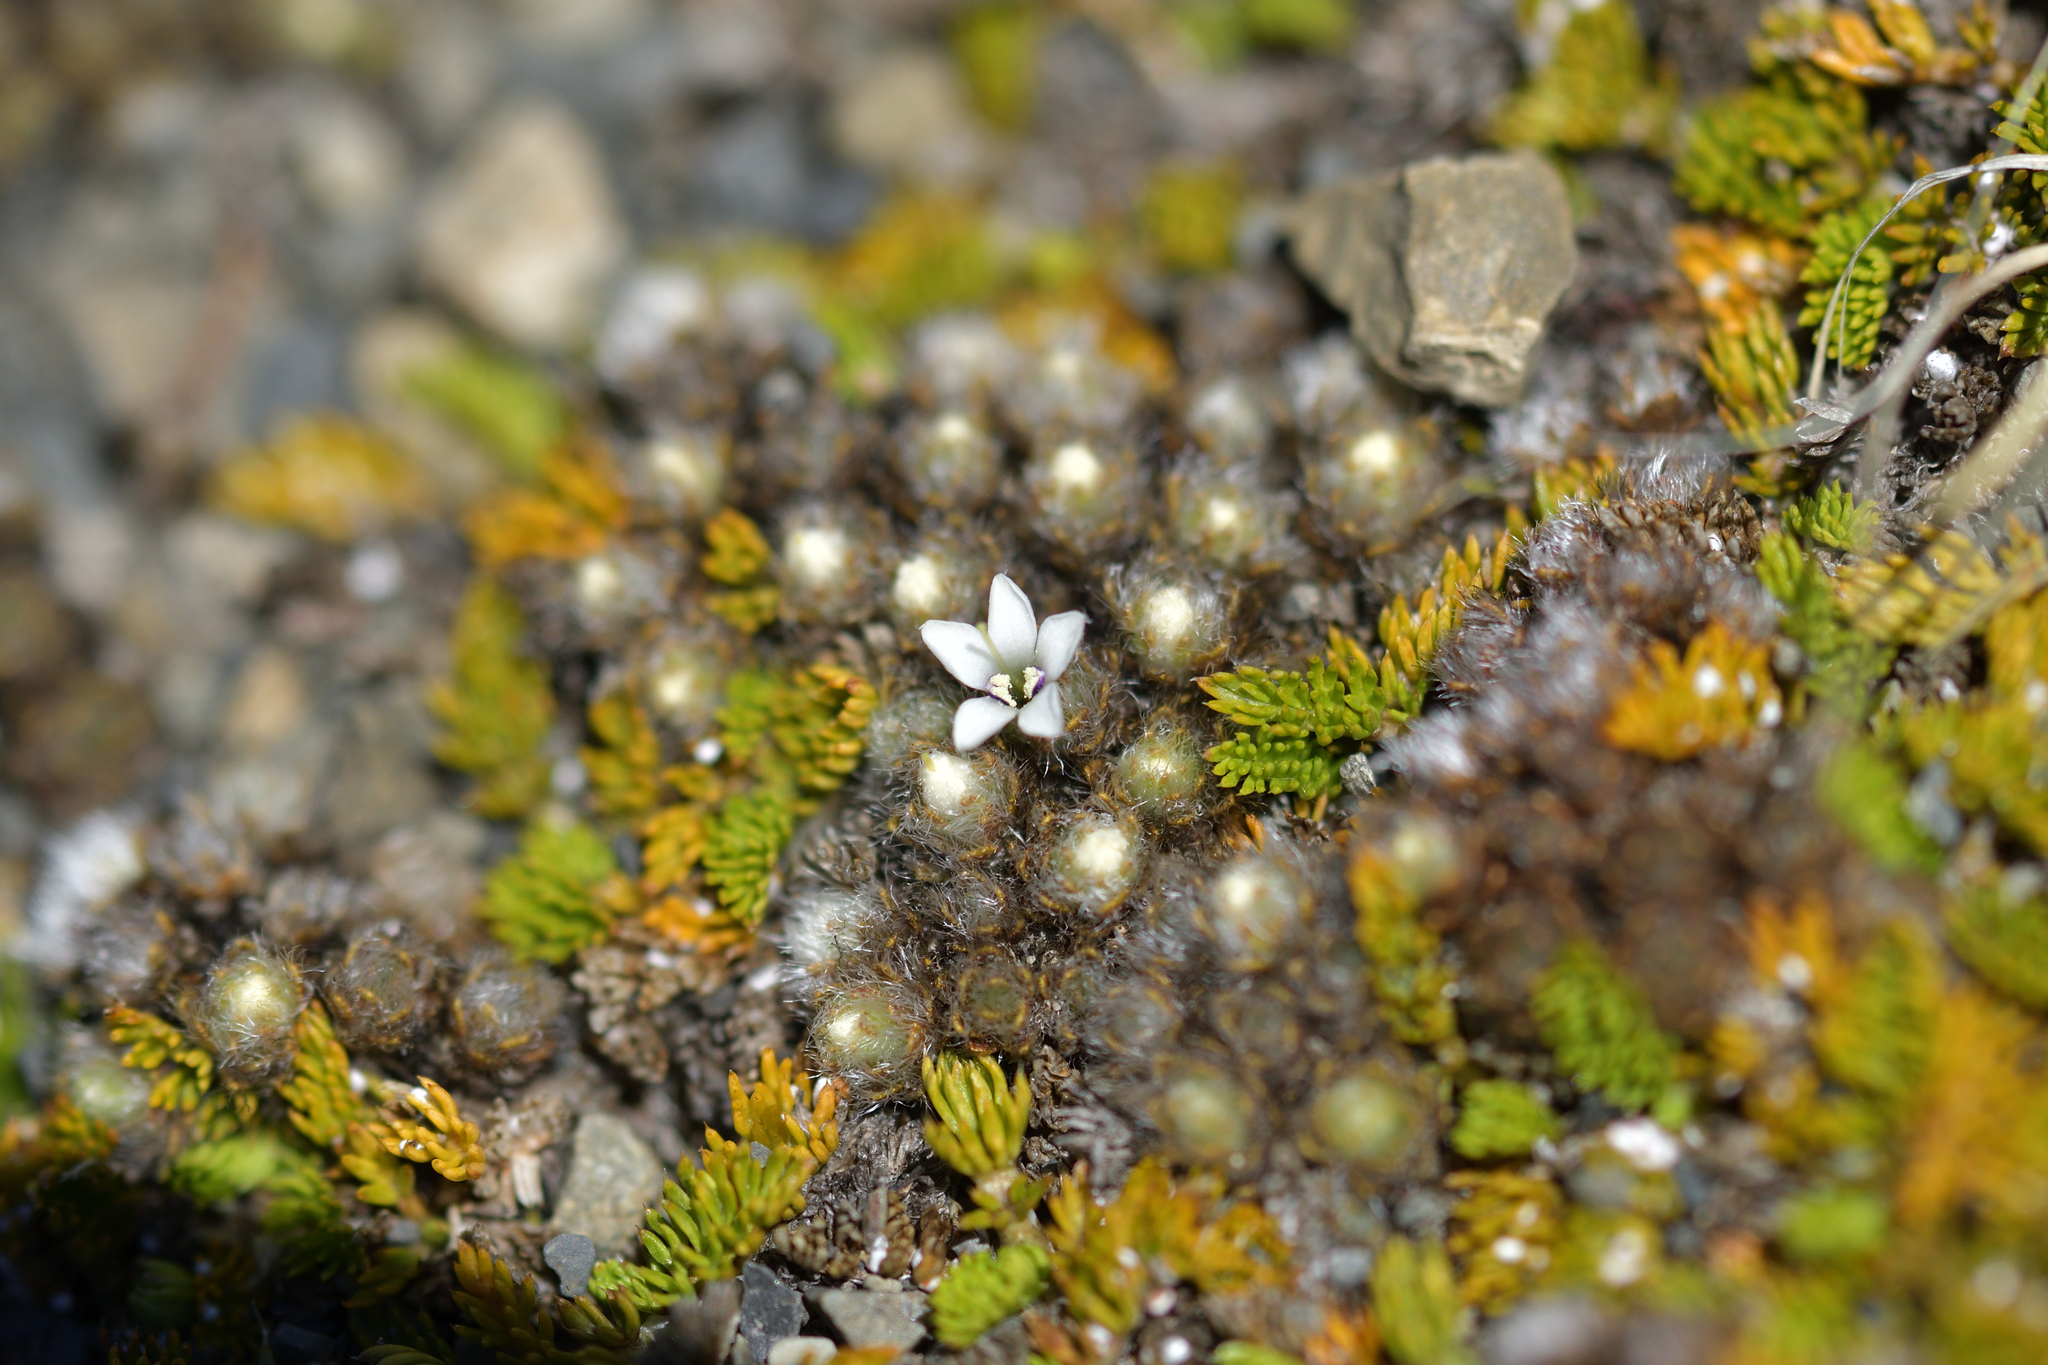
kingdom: Plantae
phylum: Tracheophyta
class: Magnoliopsida
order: Lamiales
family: Plantaginaceae
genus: Veronica
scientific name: Veronica pulvinaris
